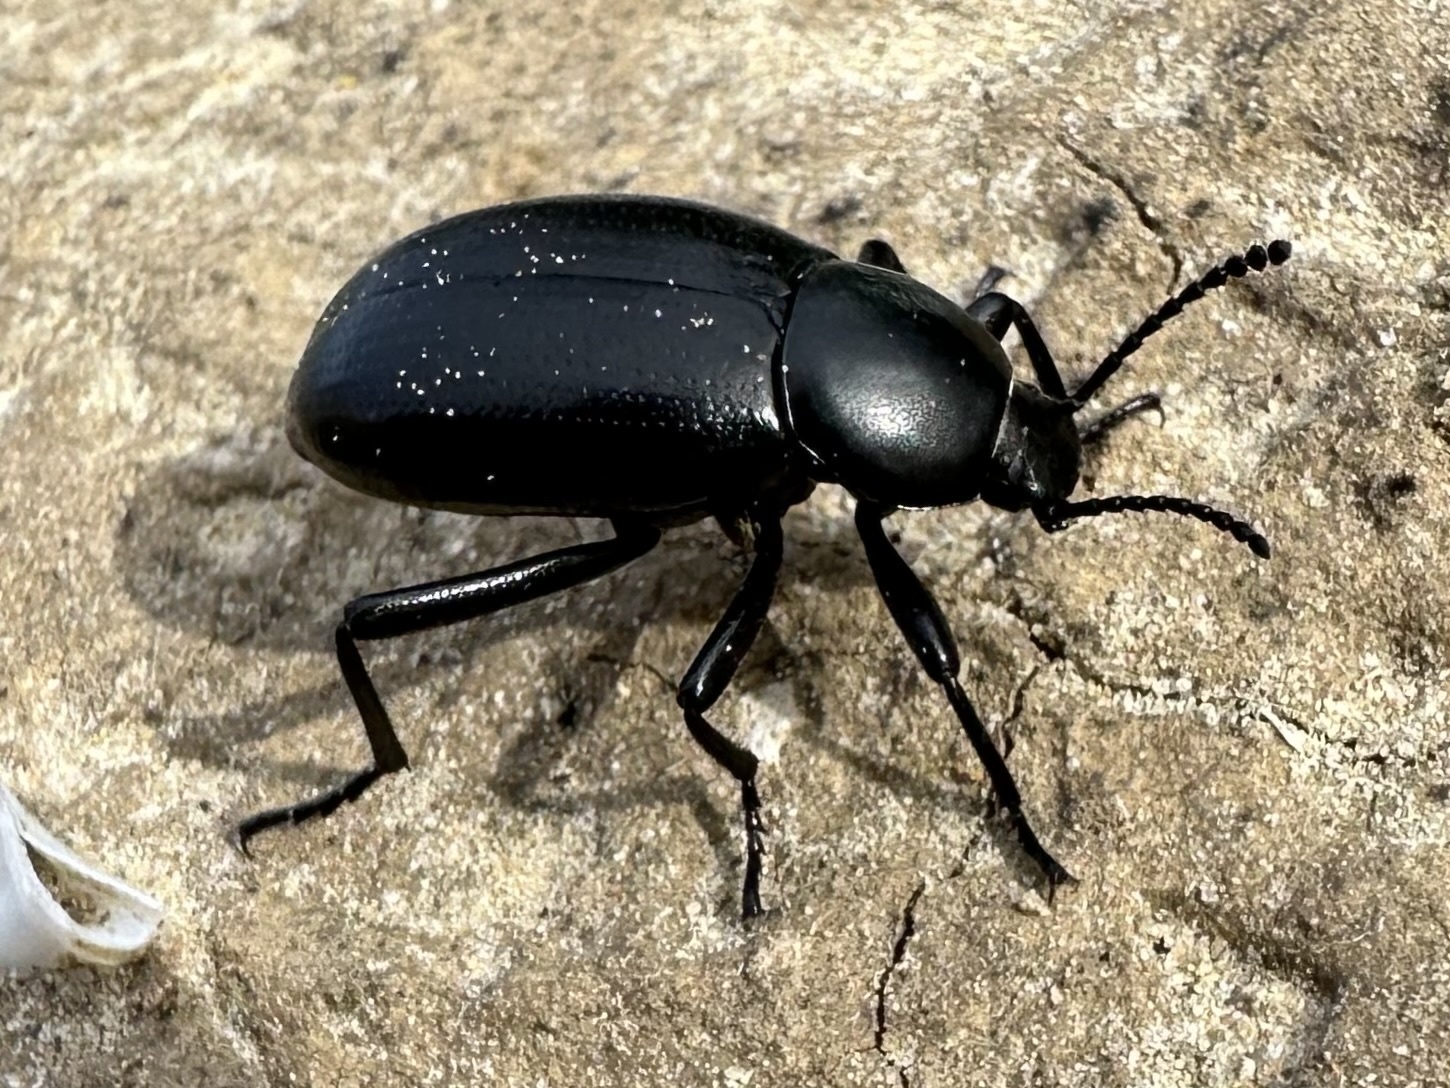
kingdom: Animalia
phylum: Arthropoda
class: Insecta
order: Coleoptera
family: Tenebrionidae
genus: Eleodes
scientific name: Eleodes carbonaria
